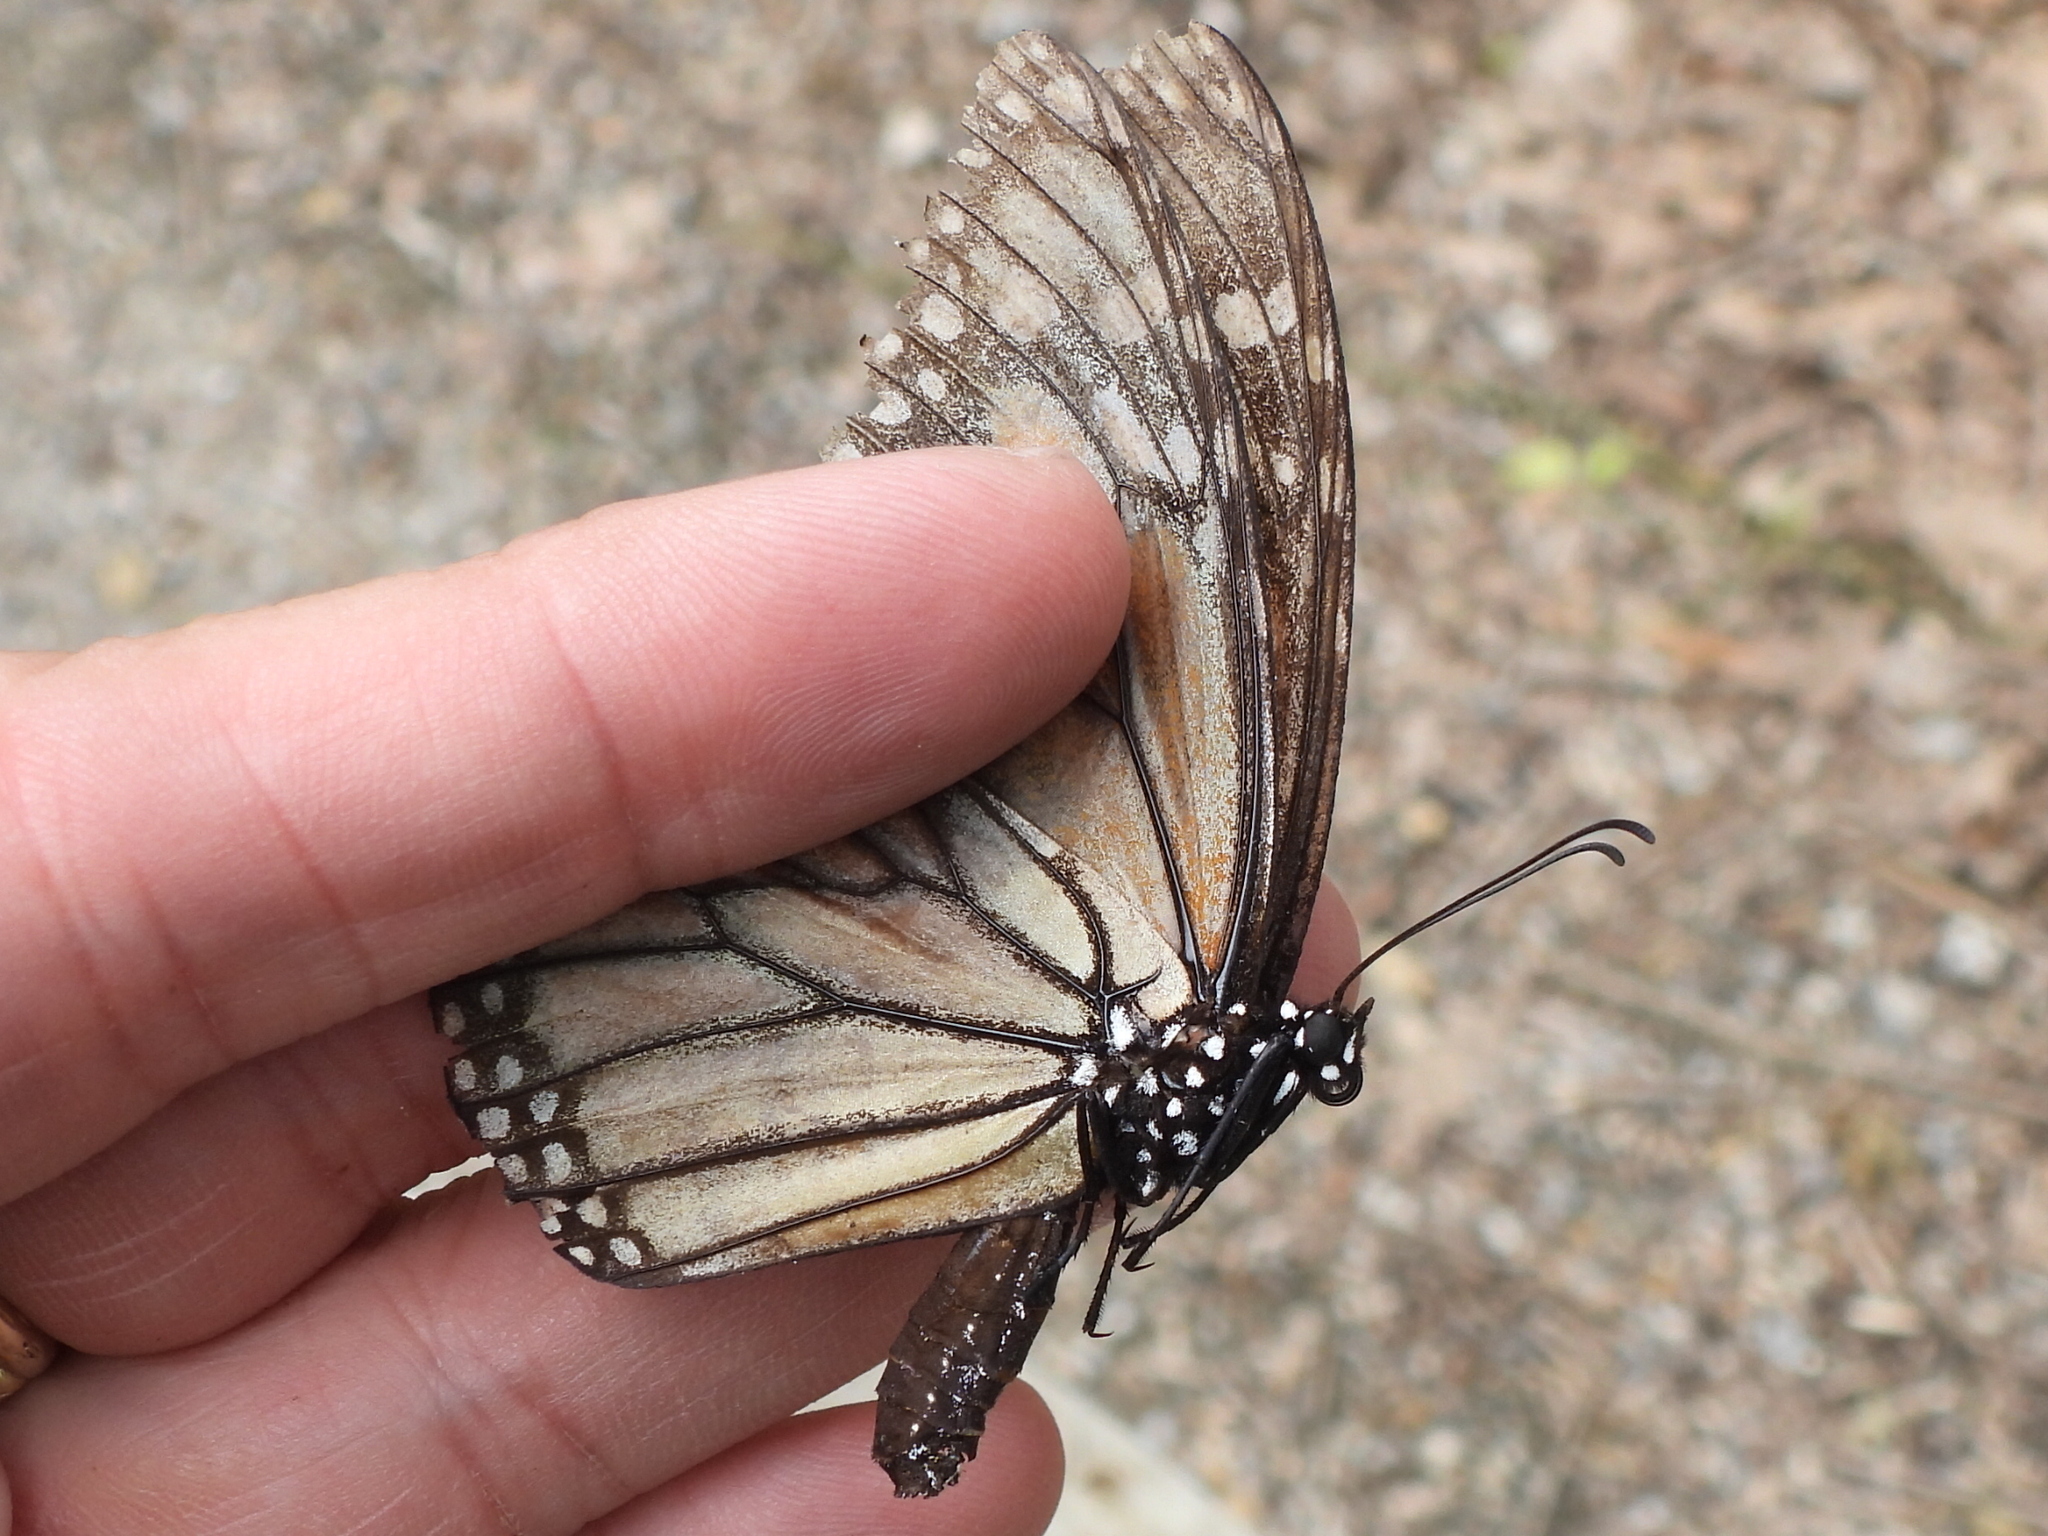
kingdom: Animalia
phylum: Arthropoda
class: Insecta
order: Lepidoptera
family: Nymphalidae
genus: Danaus
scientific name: Danaus plexippus
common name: Monarch
